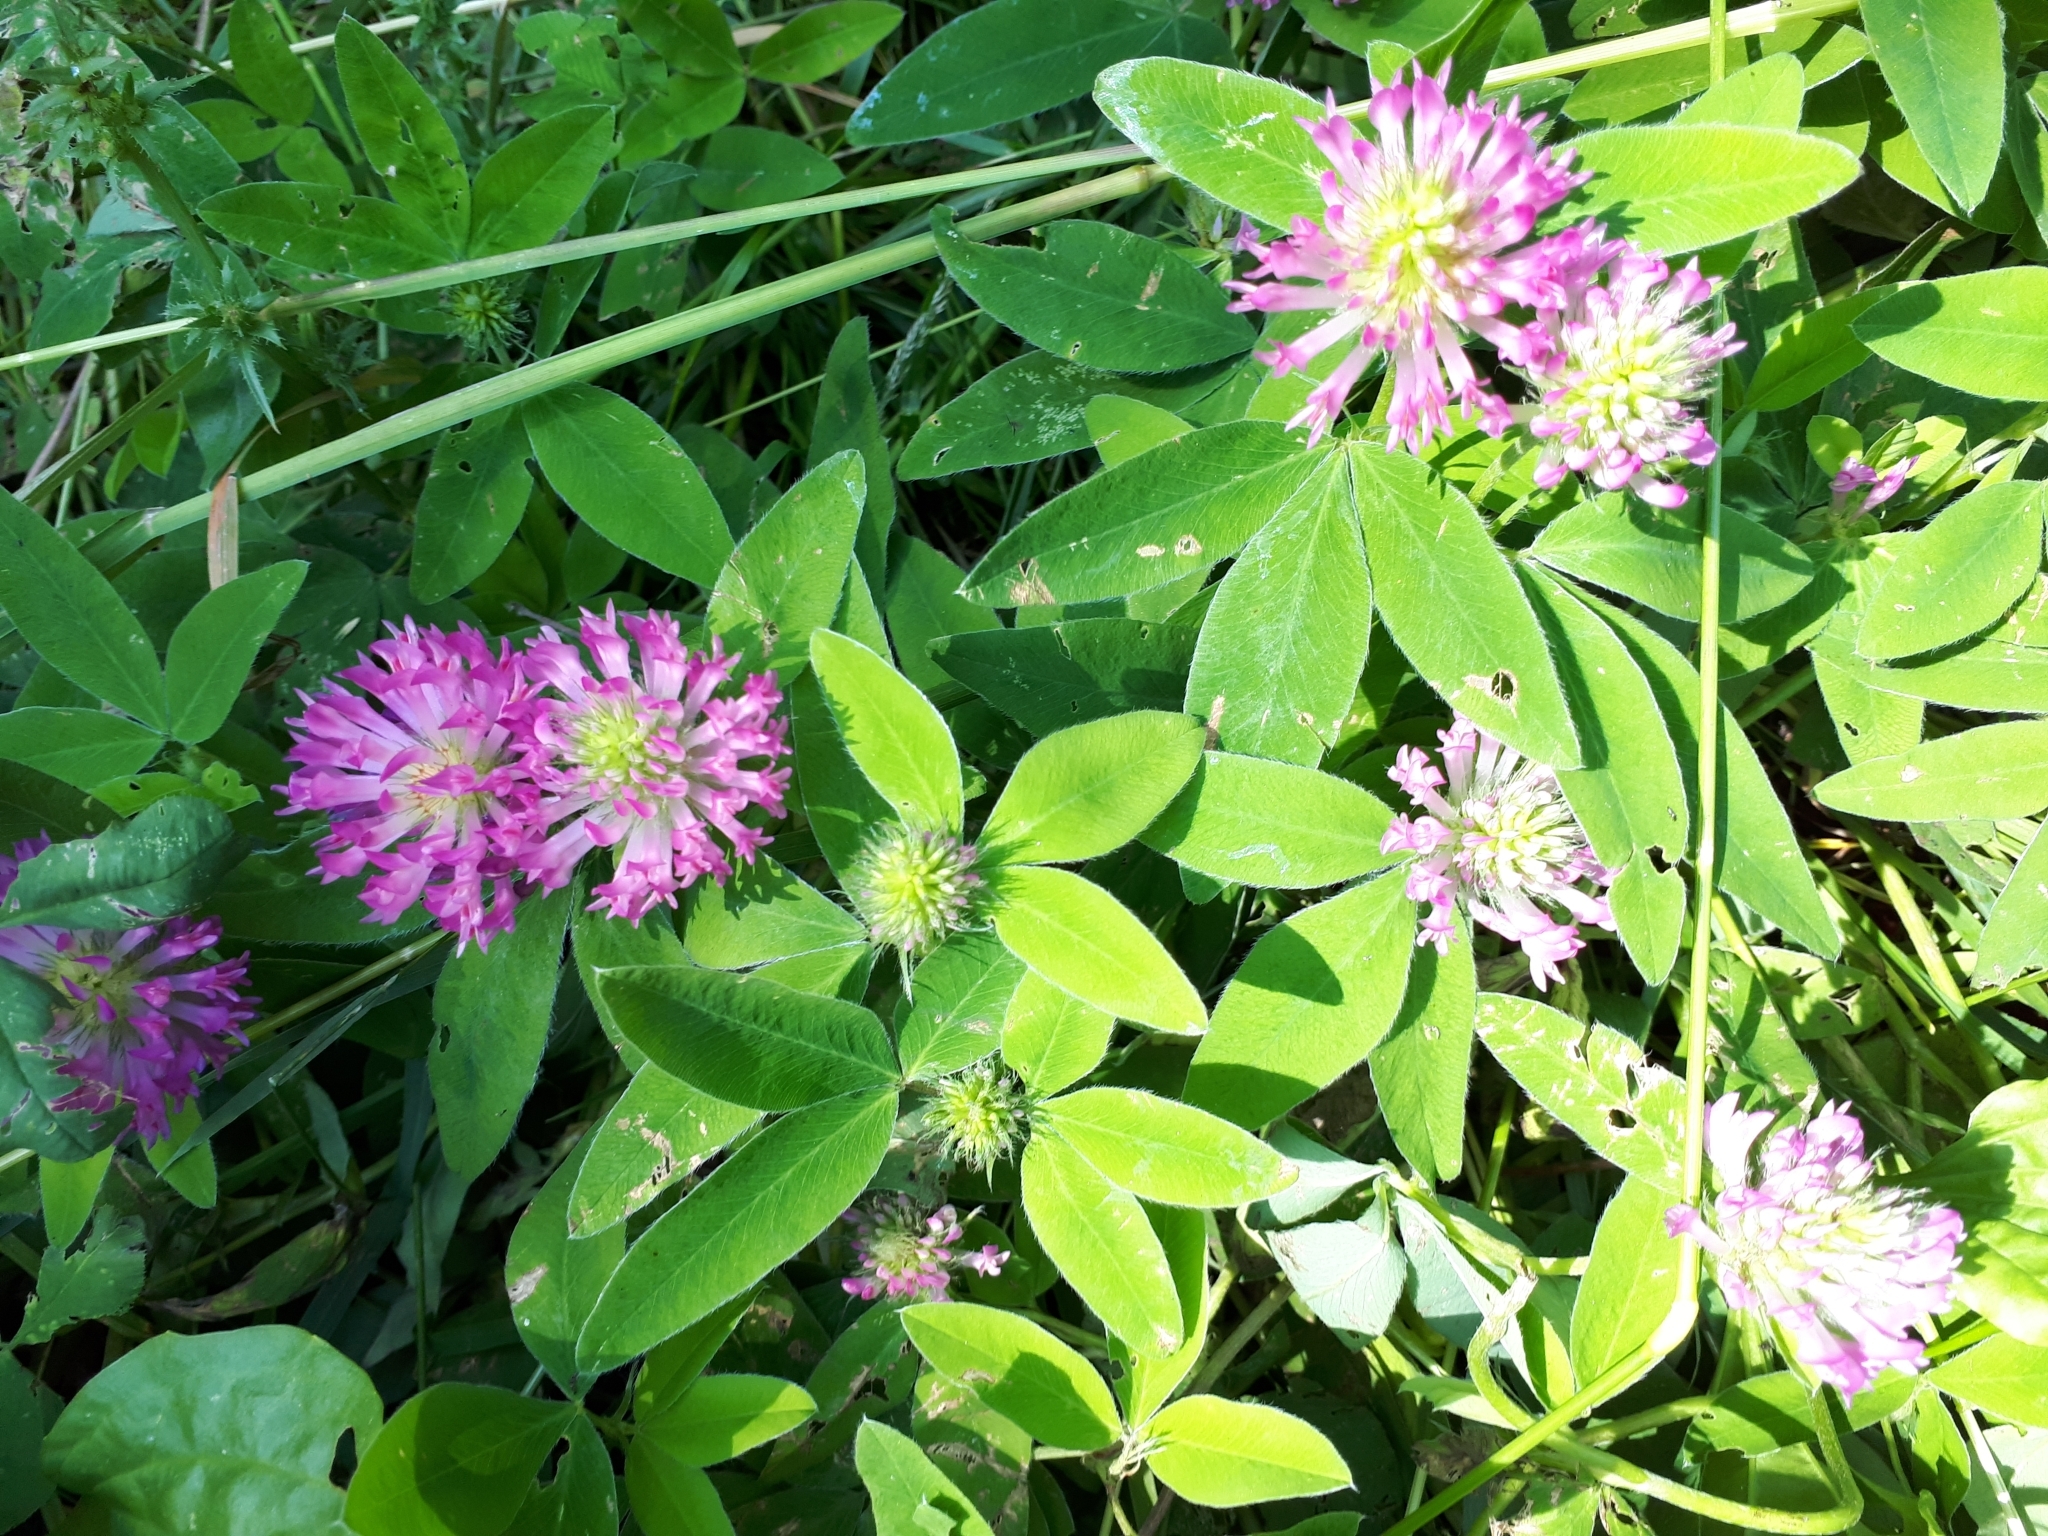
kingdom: Plantae
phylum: Tracheophyta
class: Magnoliopsida
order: Fabales
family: Fabaceae
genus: Trifolium
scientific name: Trifolium medium
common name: Zigzag clover
